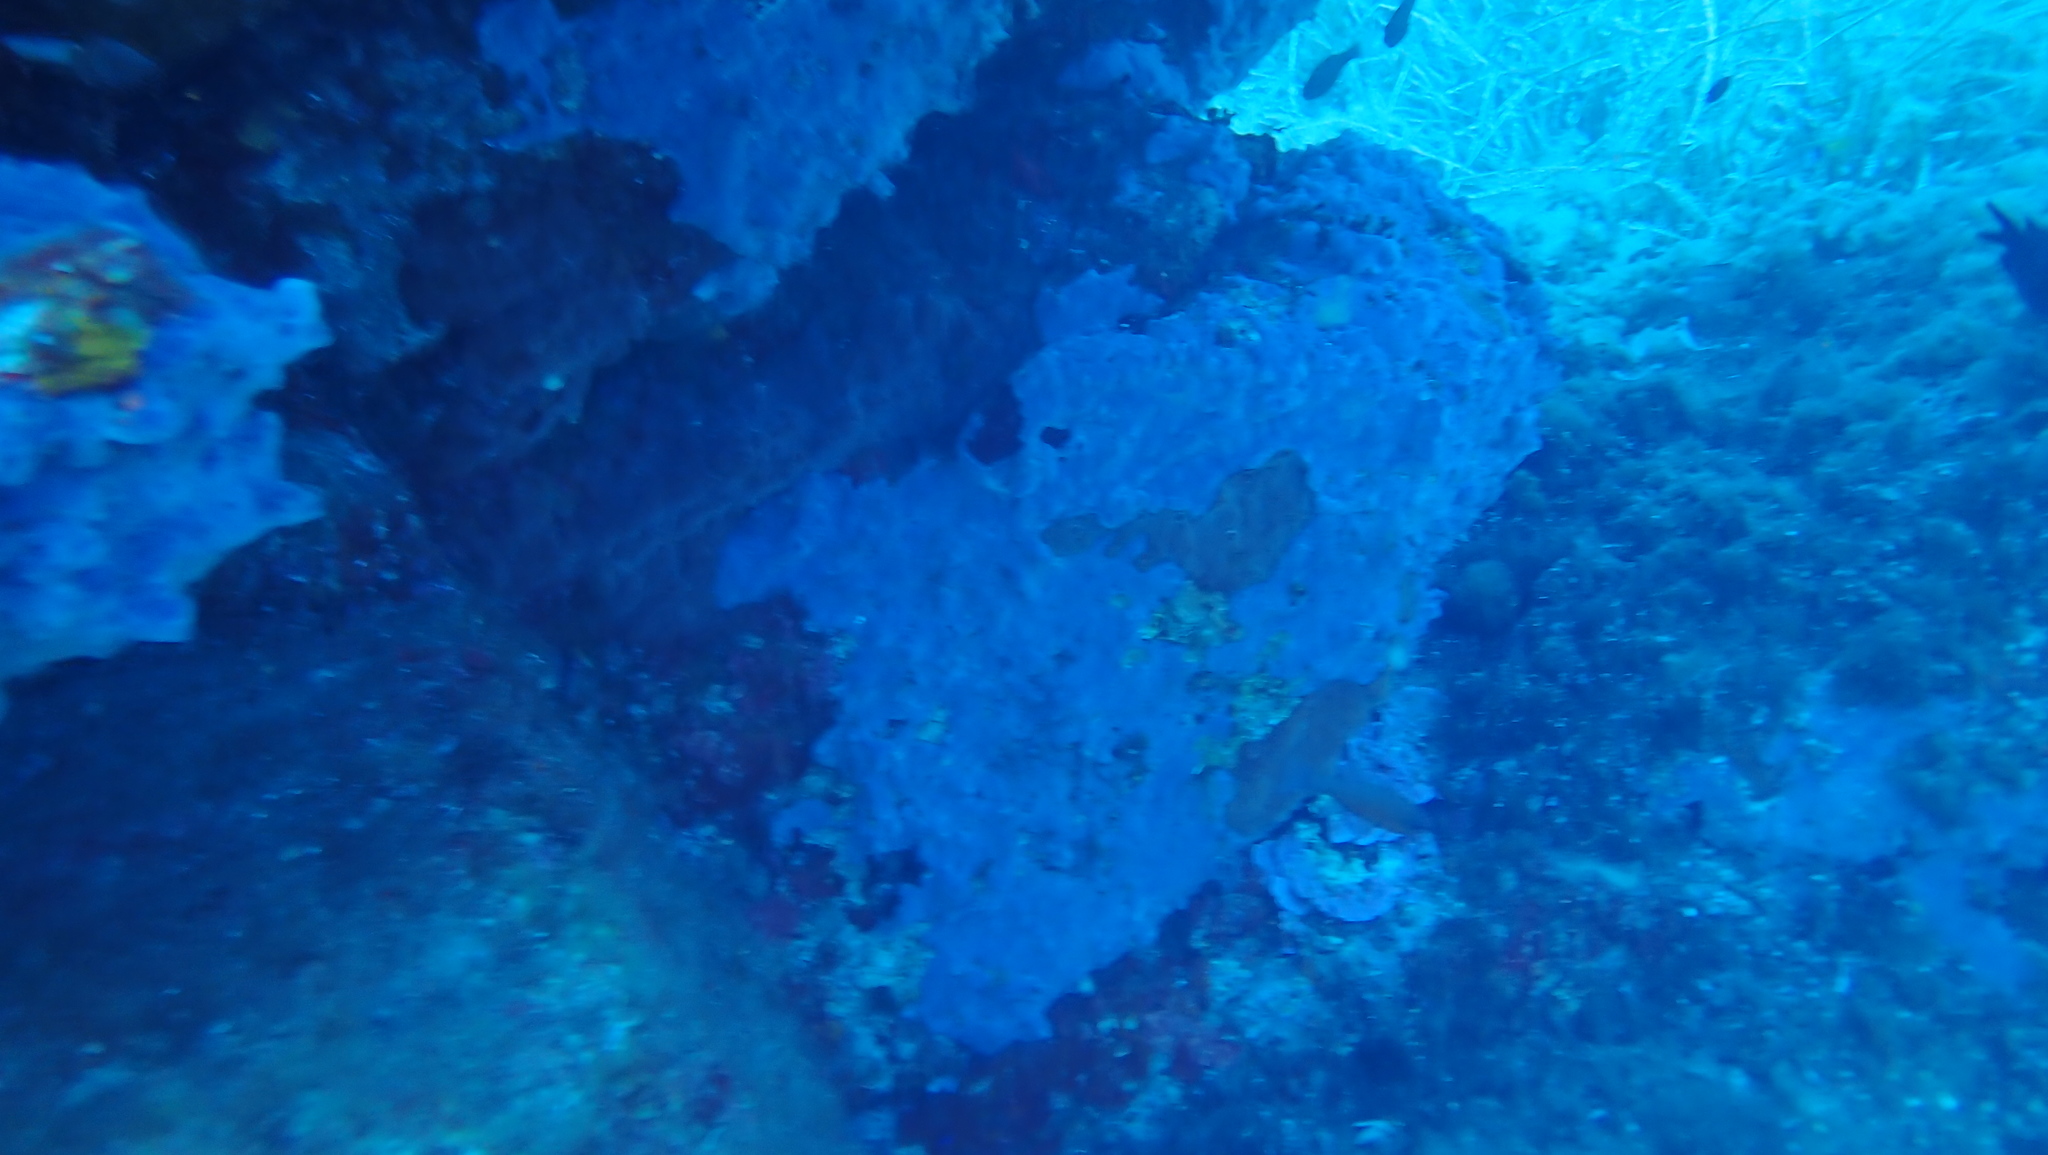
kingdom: Animalia
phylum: Porifera
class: Demospongiae
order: Poecilosclerida
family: Hymedesmiidae
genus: Phorbas
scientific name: Phorbas tenacior
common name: Bluish encrusting sponge
